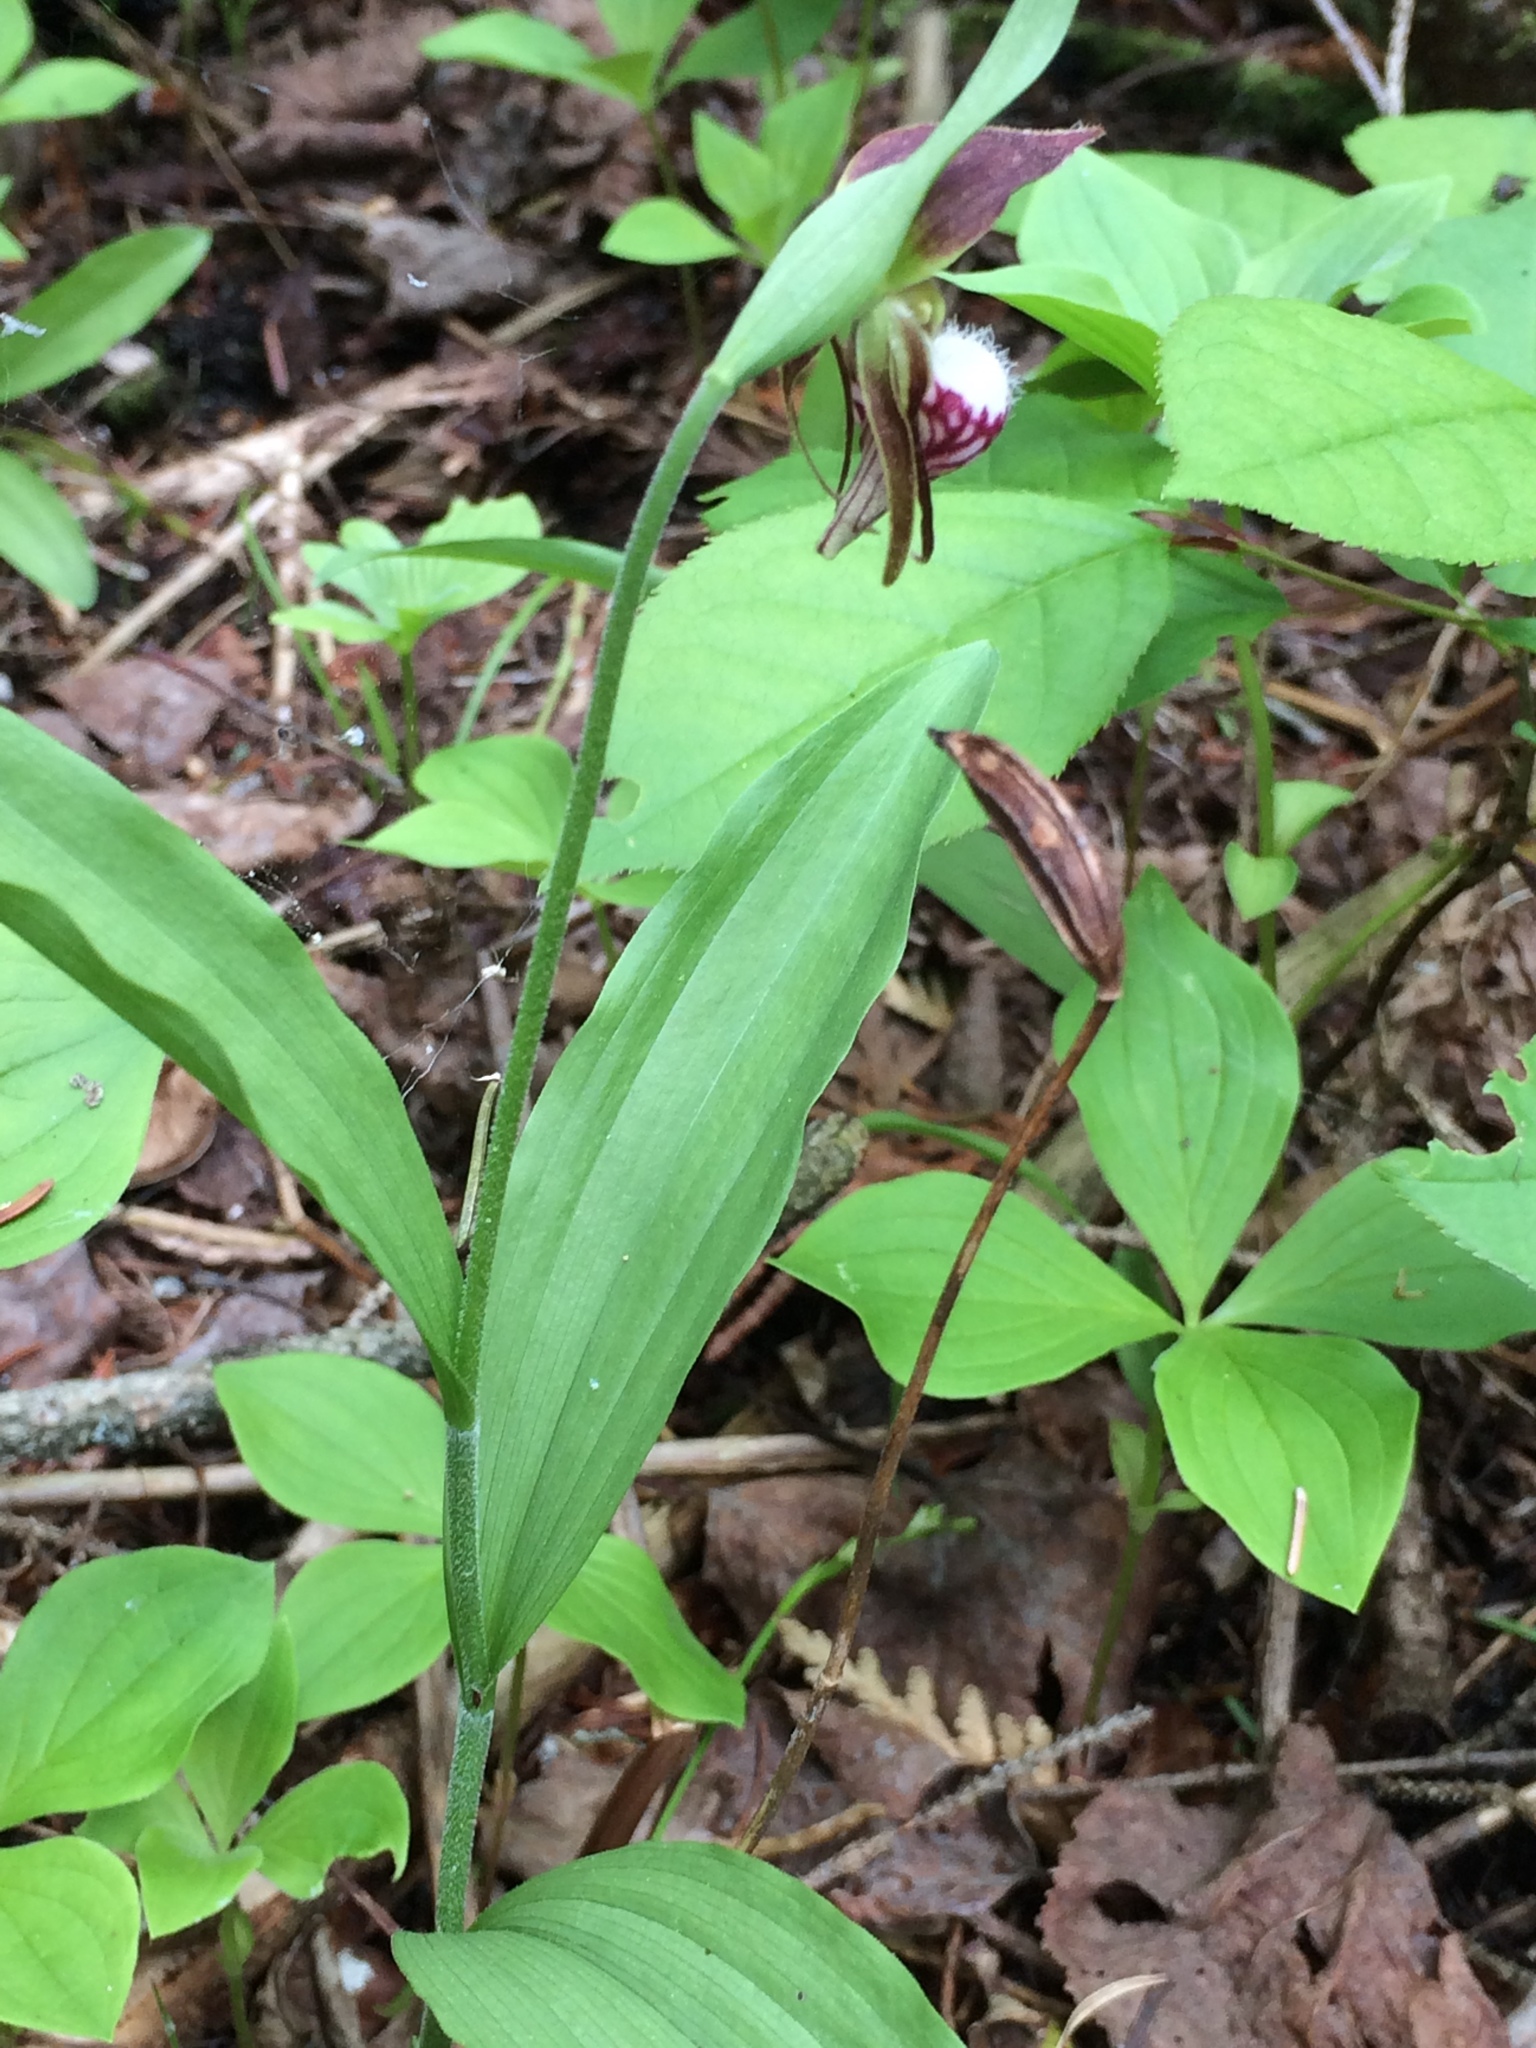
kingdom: Plantae
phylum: Tracheophyta
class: Liliopsida
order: Asparagales
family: Orchidaceae
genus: Cypripedium
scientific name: Cypripedium arietinum
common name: Ram's-head
